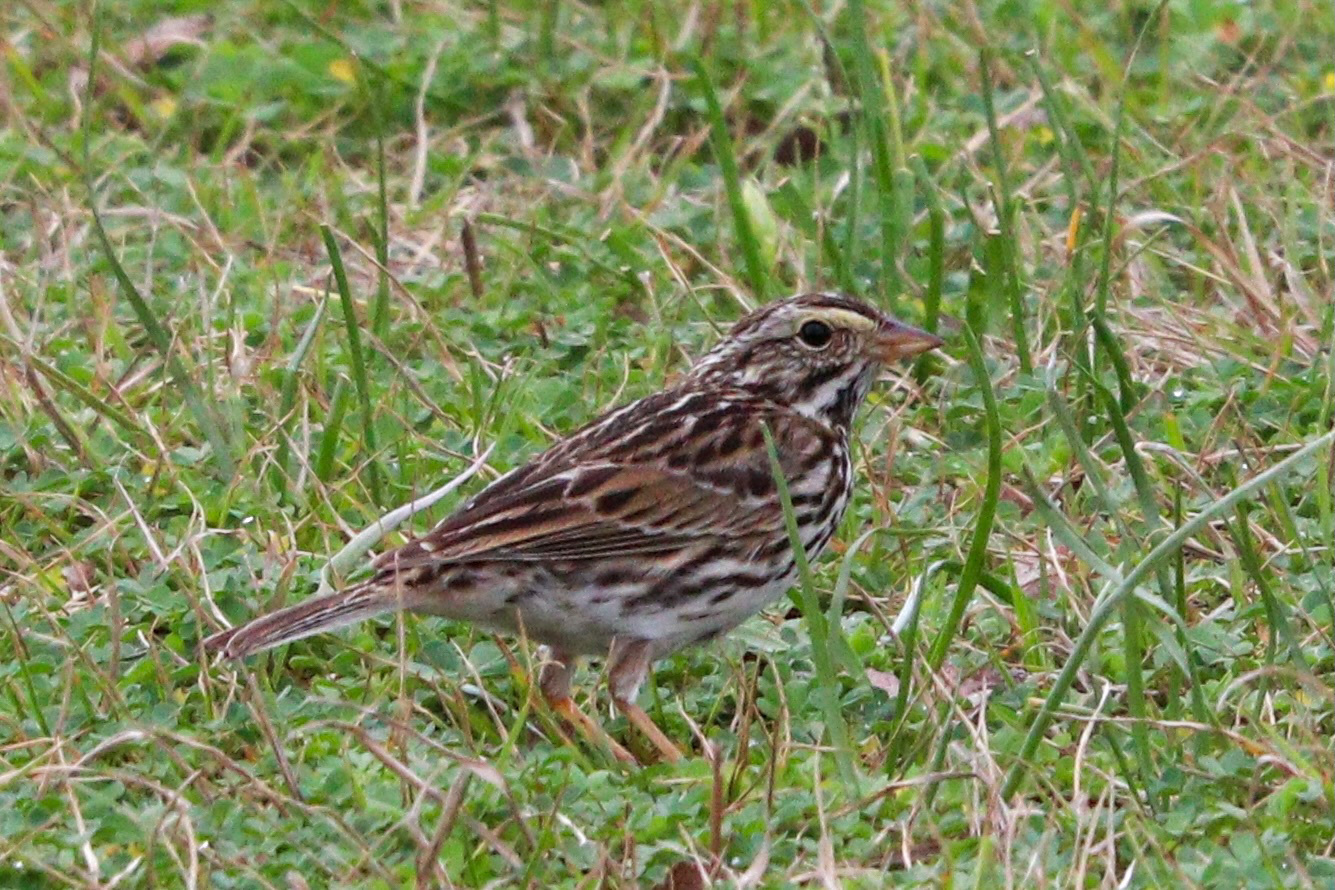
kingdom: Animalia
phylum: Chordata
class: Aves
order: Passeriformes
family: Passerellidae
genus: Passerculus
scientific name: Passerculus sandwichensis
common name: Savannah sparrow
